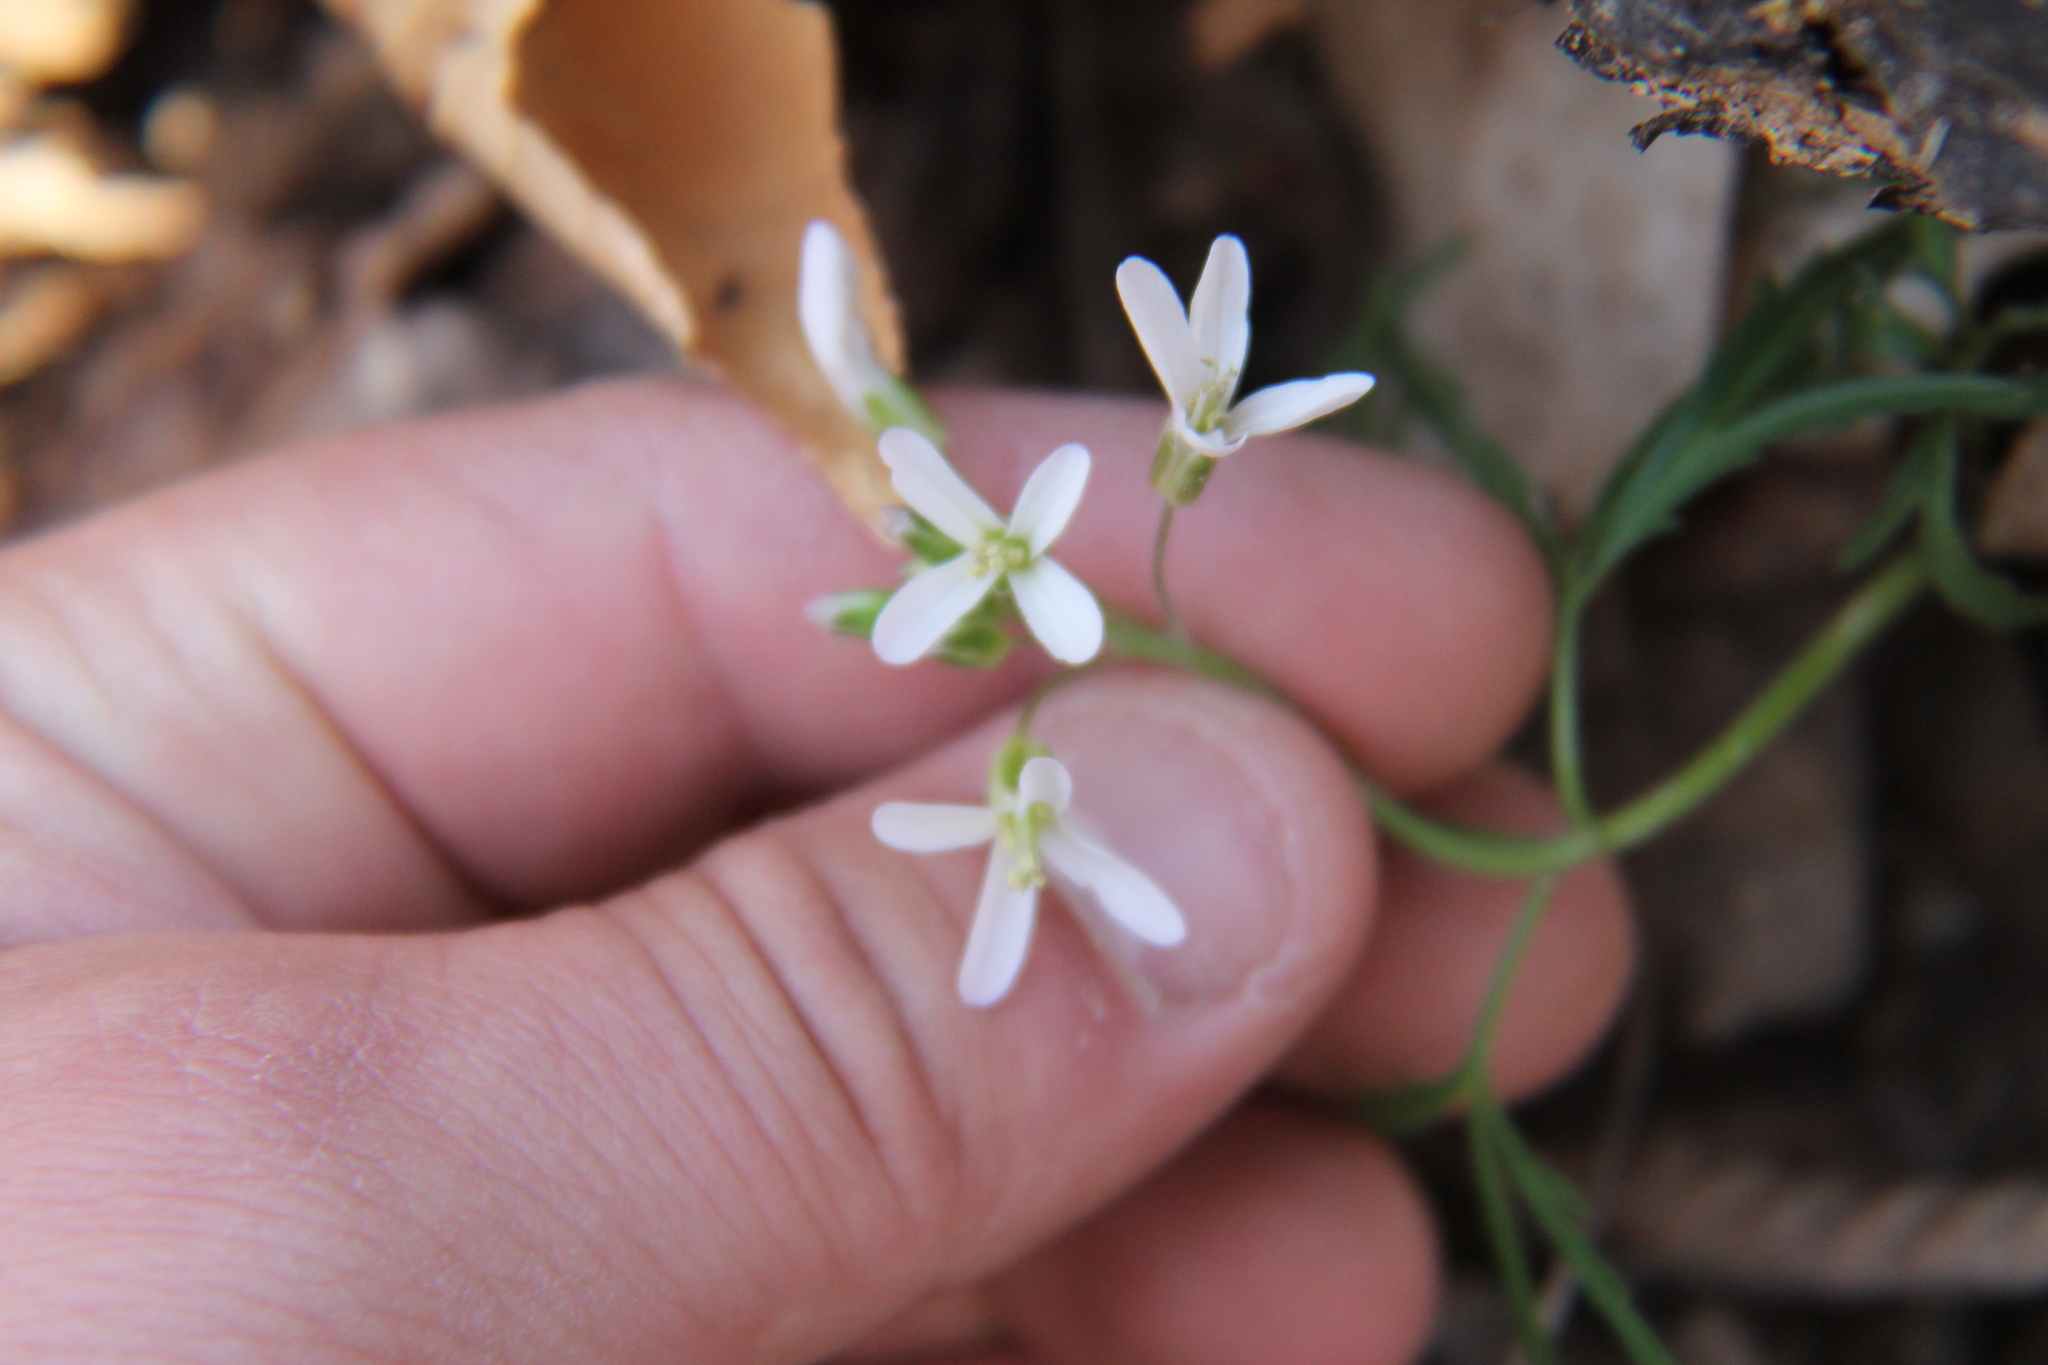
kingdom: Plantae
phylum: Tracheophyta
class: Magnoliopsida
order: Brassicales
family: Brassicaceae
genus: Cardamine
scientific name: Cardamine concatenata
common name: Cut-leaf toothcup
